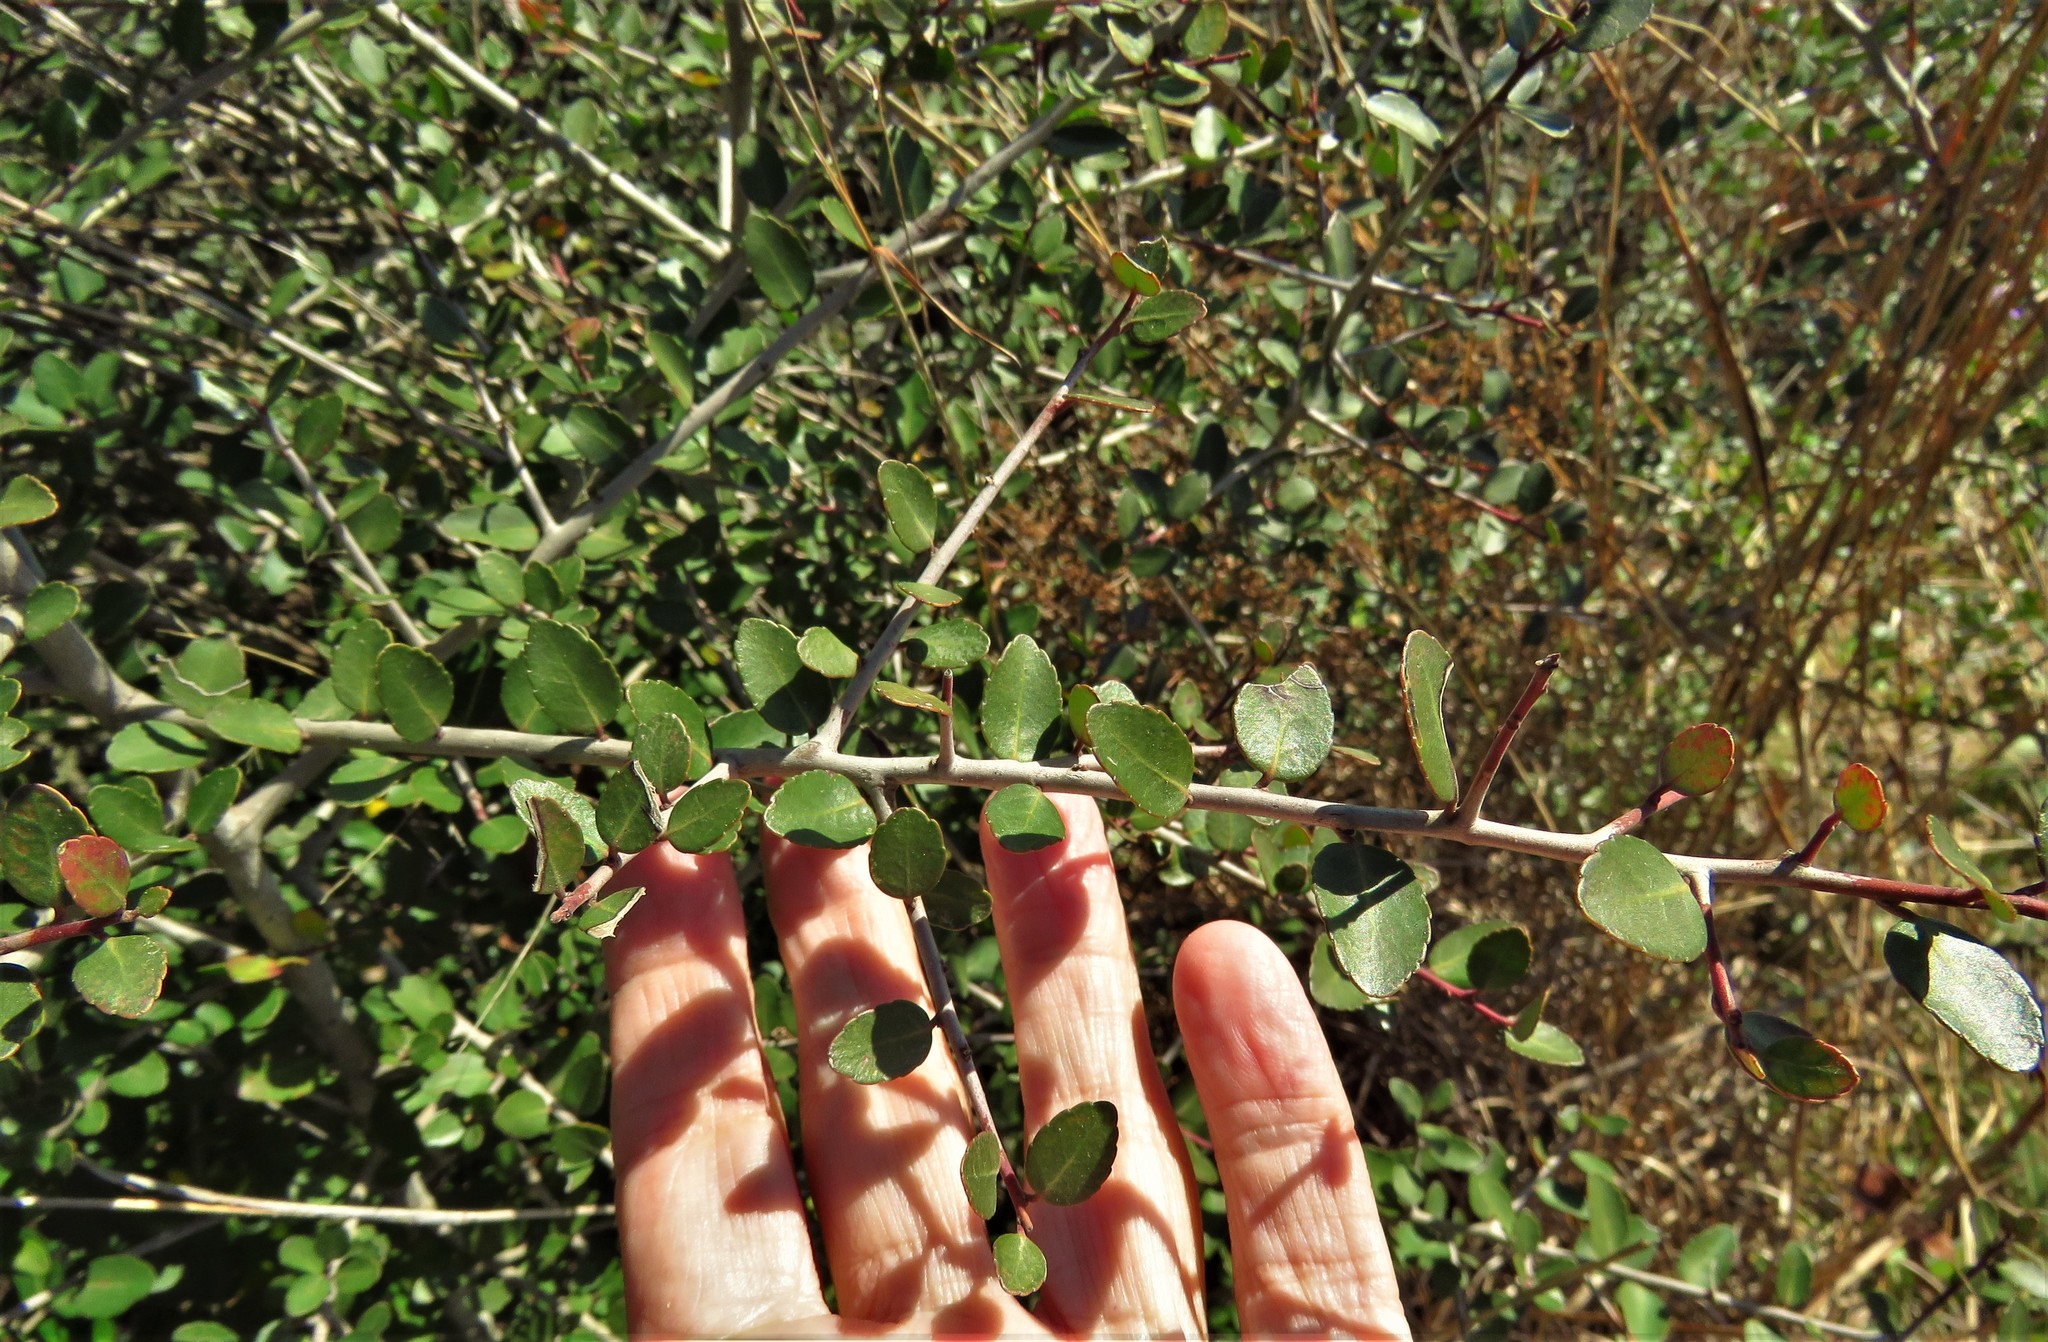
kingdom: Plantae
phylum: Tracheophyta
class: Magnoliopsida
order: Aquifoliales
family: Aquifoliaceae
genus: Ilex
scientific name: Ilex vomitoria
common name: Yaupon holly
